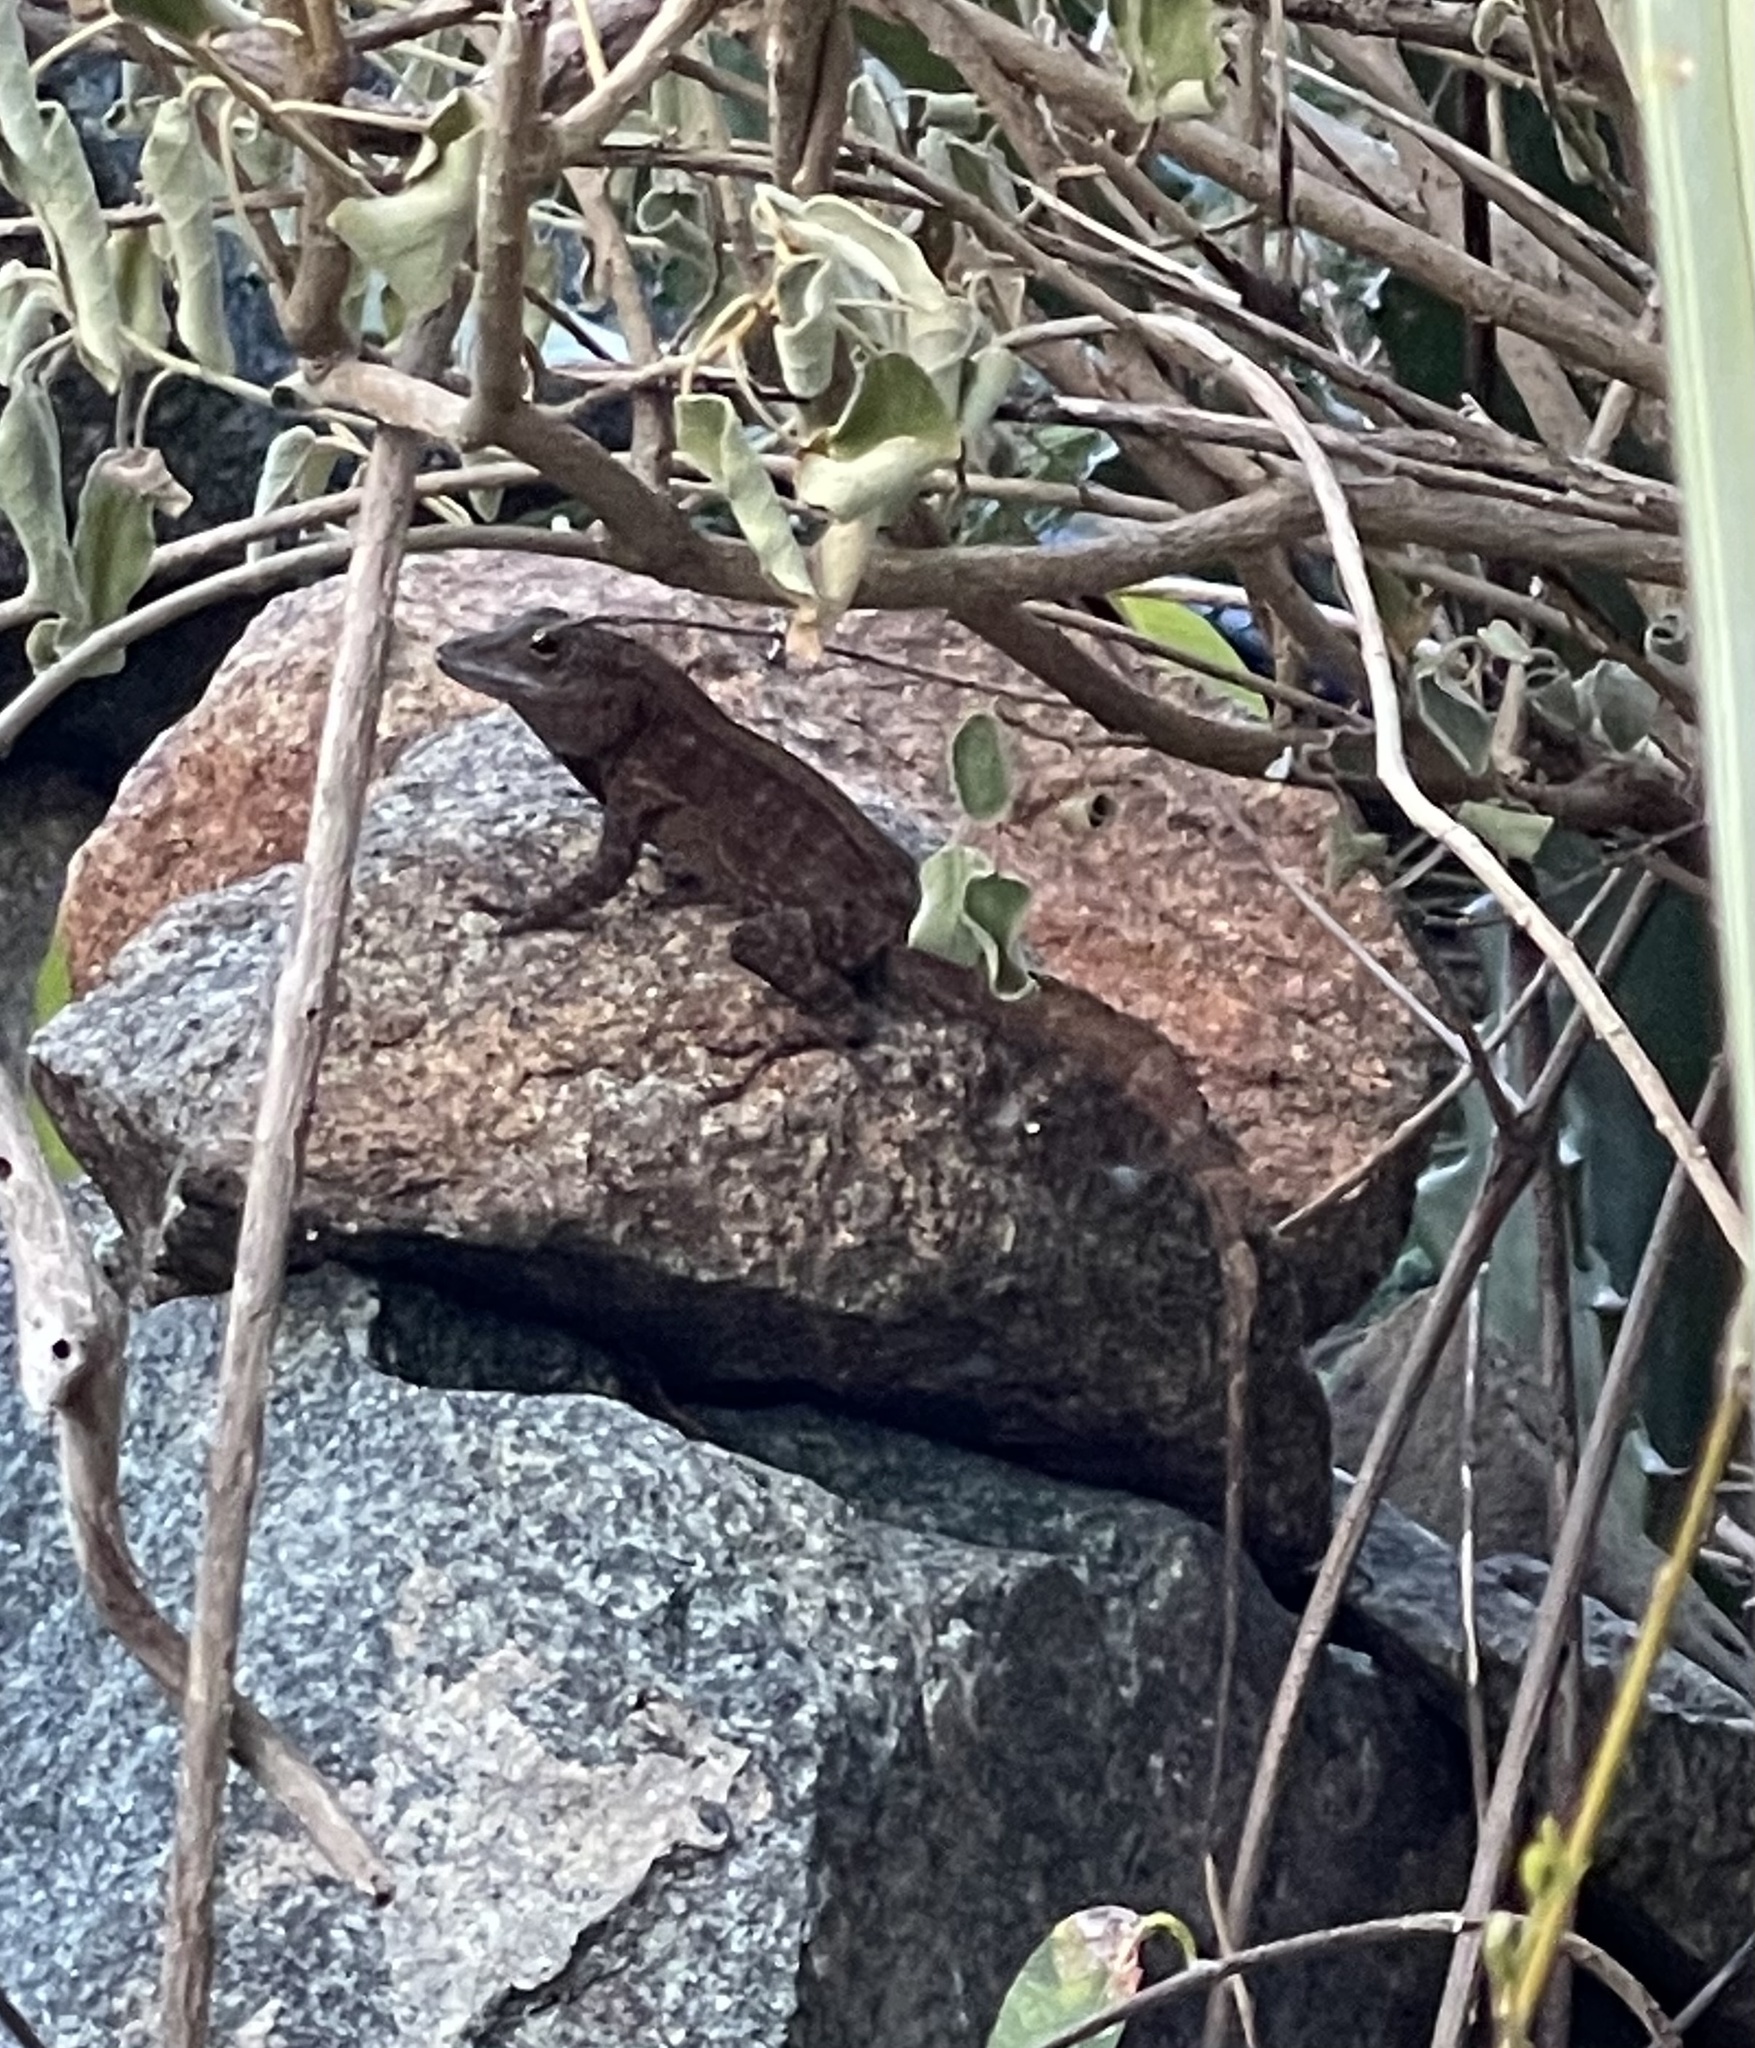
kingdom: Animalia
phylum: Chordata
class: Squamata
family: Dactyloidae
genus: Anolis
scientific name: Anolis cristatellus
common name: Crested anole
